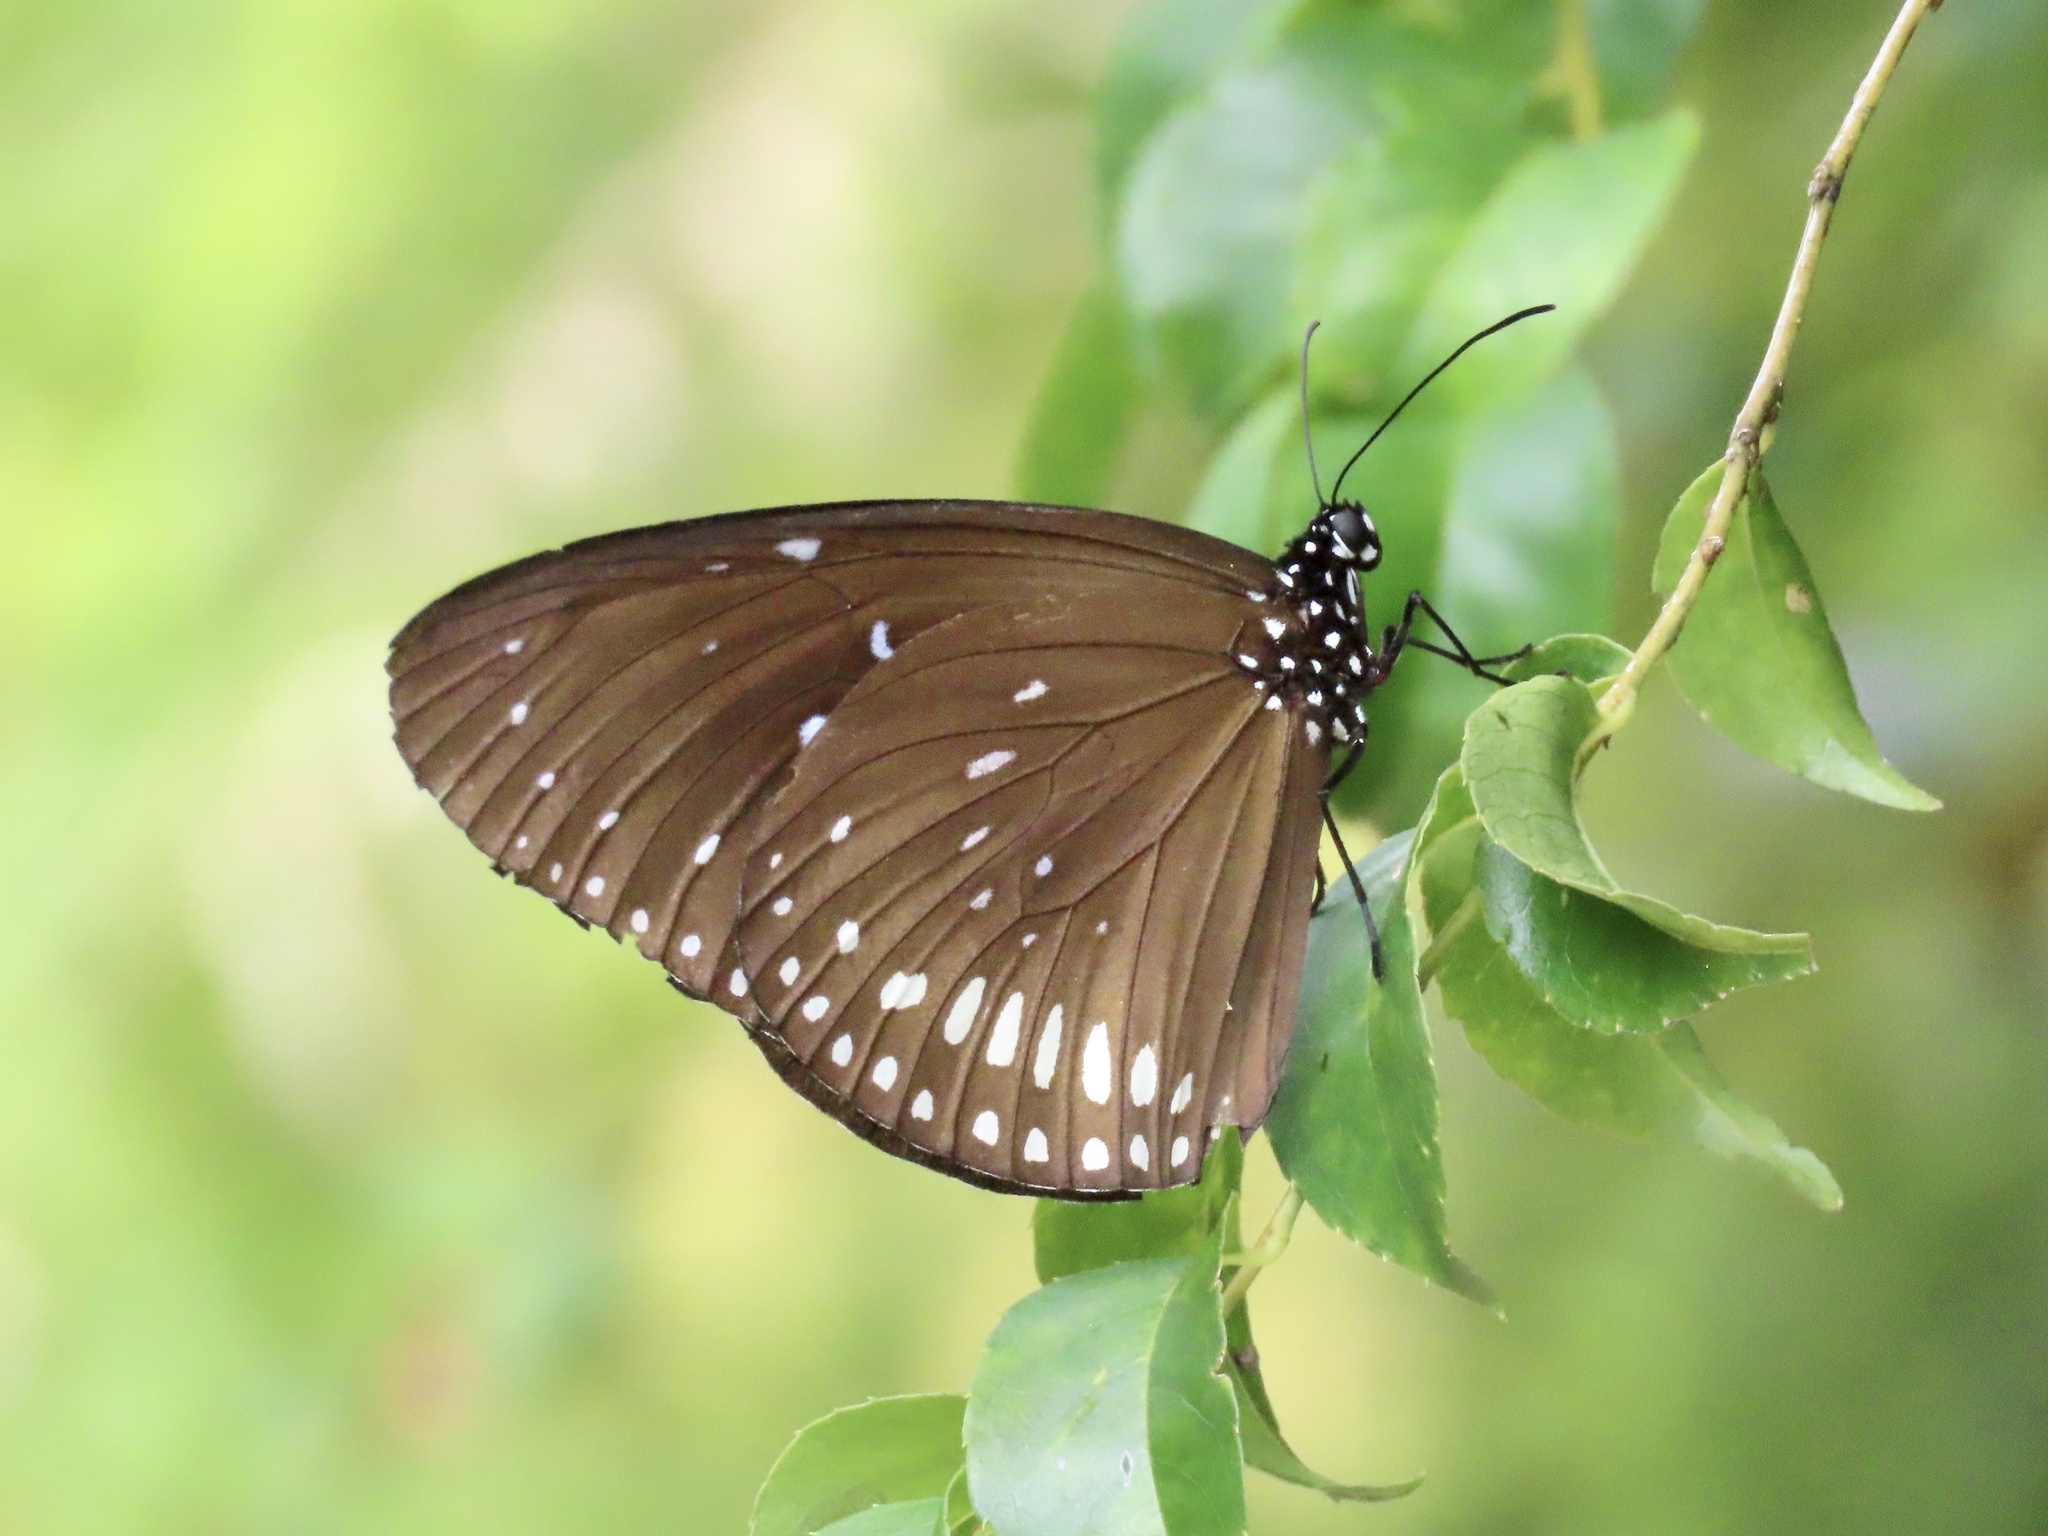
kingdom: Animalia
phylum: Arthropoda
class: Insecta
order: Lepidoptera
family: Nymphalidae
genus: Euploea
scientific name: Euploea midamus
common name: Blue-spotted crow butterfly
